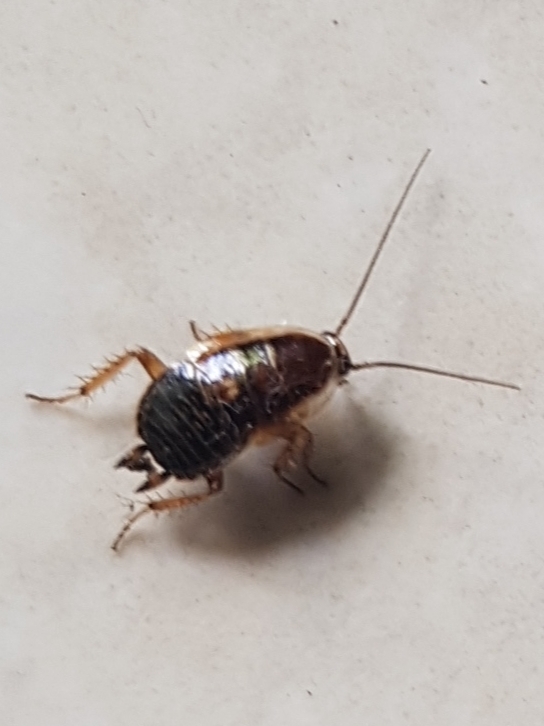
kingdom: Animalia
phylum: Arthropoda
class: Insecta
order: Blattodea
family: Ectobiidae
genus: Ectobius
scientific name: Ectobius sylvestris
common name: Forest cockroach
